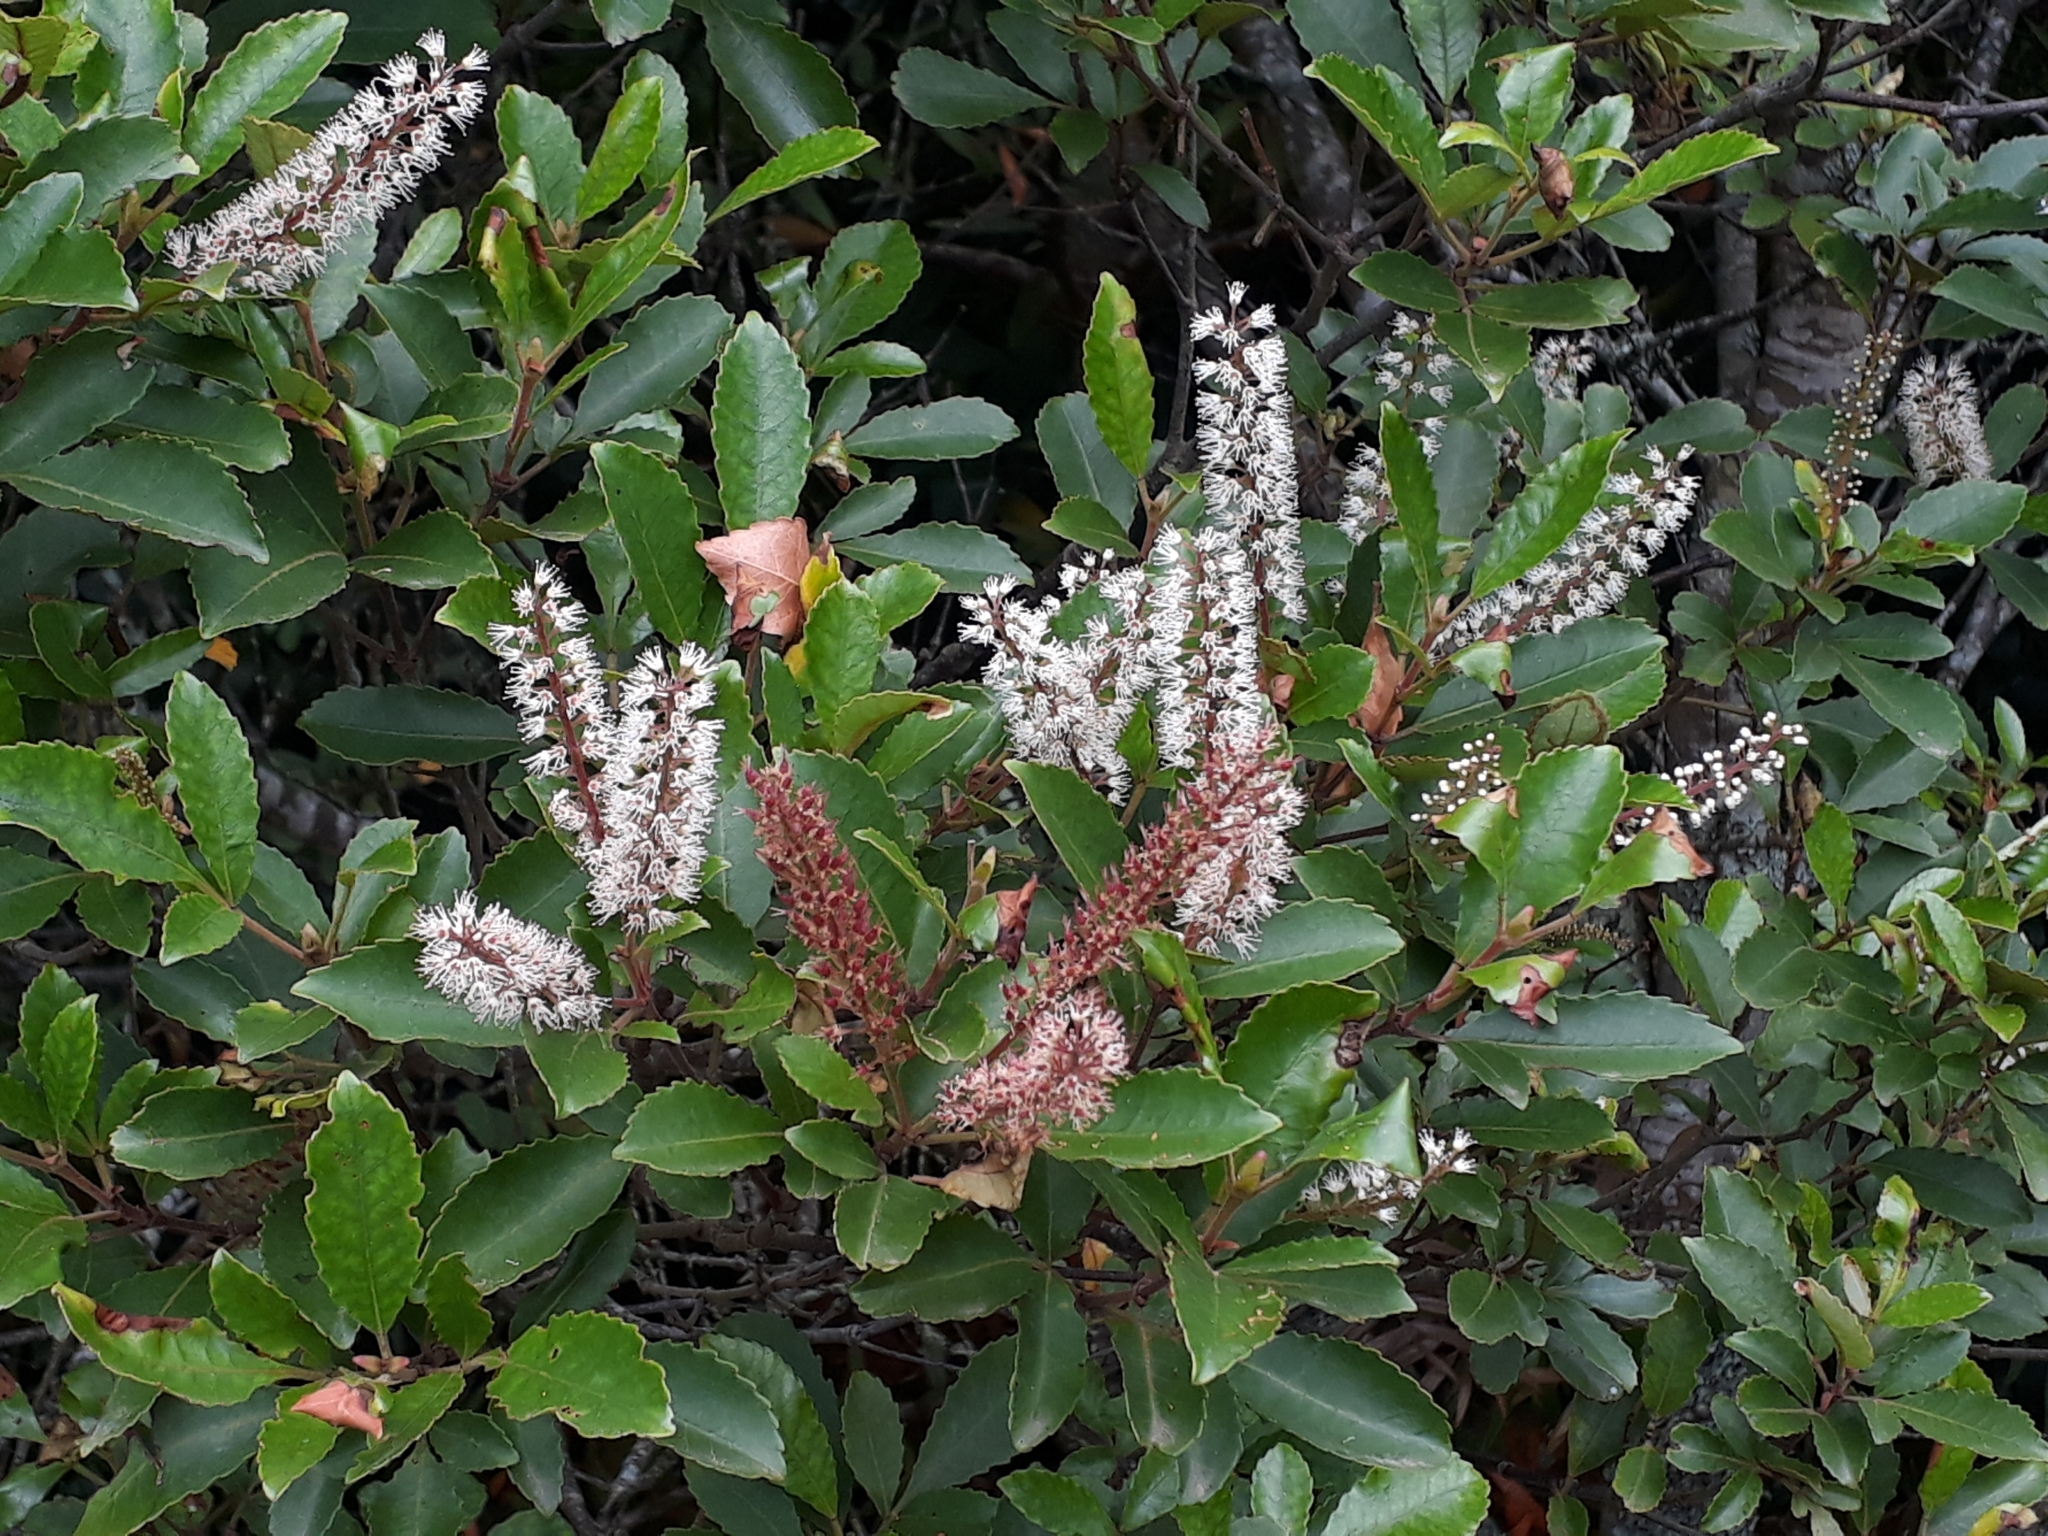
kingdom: Plantae
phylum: Tracheophyta
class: Magnoliopsida
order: Oxalidales
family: Cunoniaceae
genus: Pterophylla
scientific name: Pterophylla sylvicola
